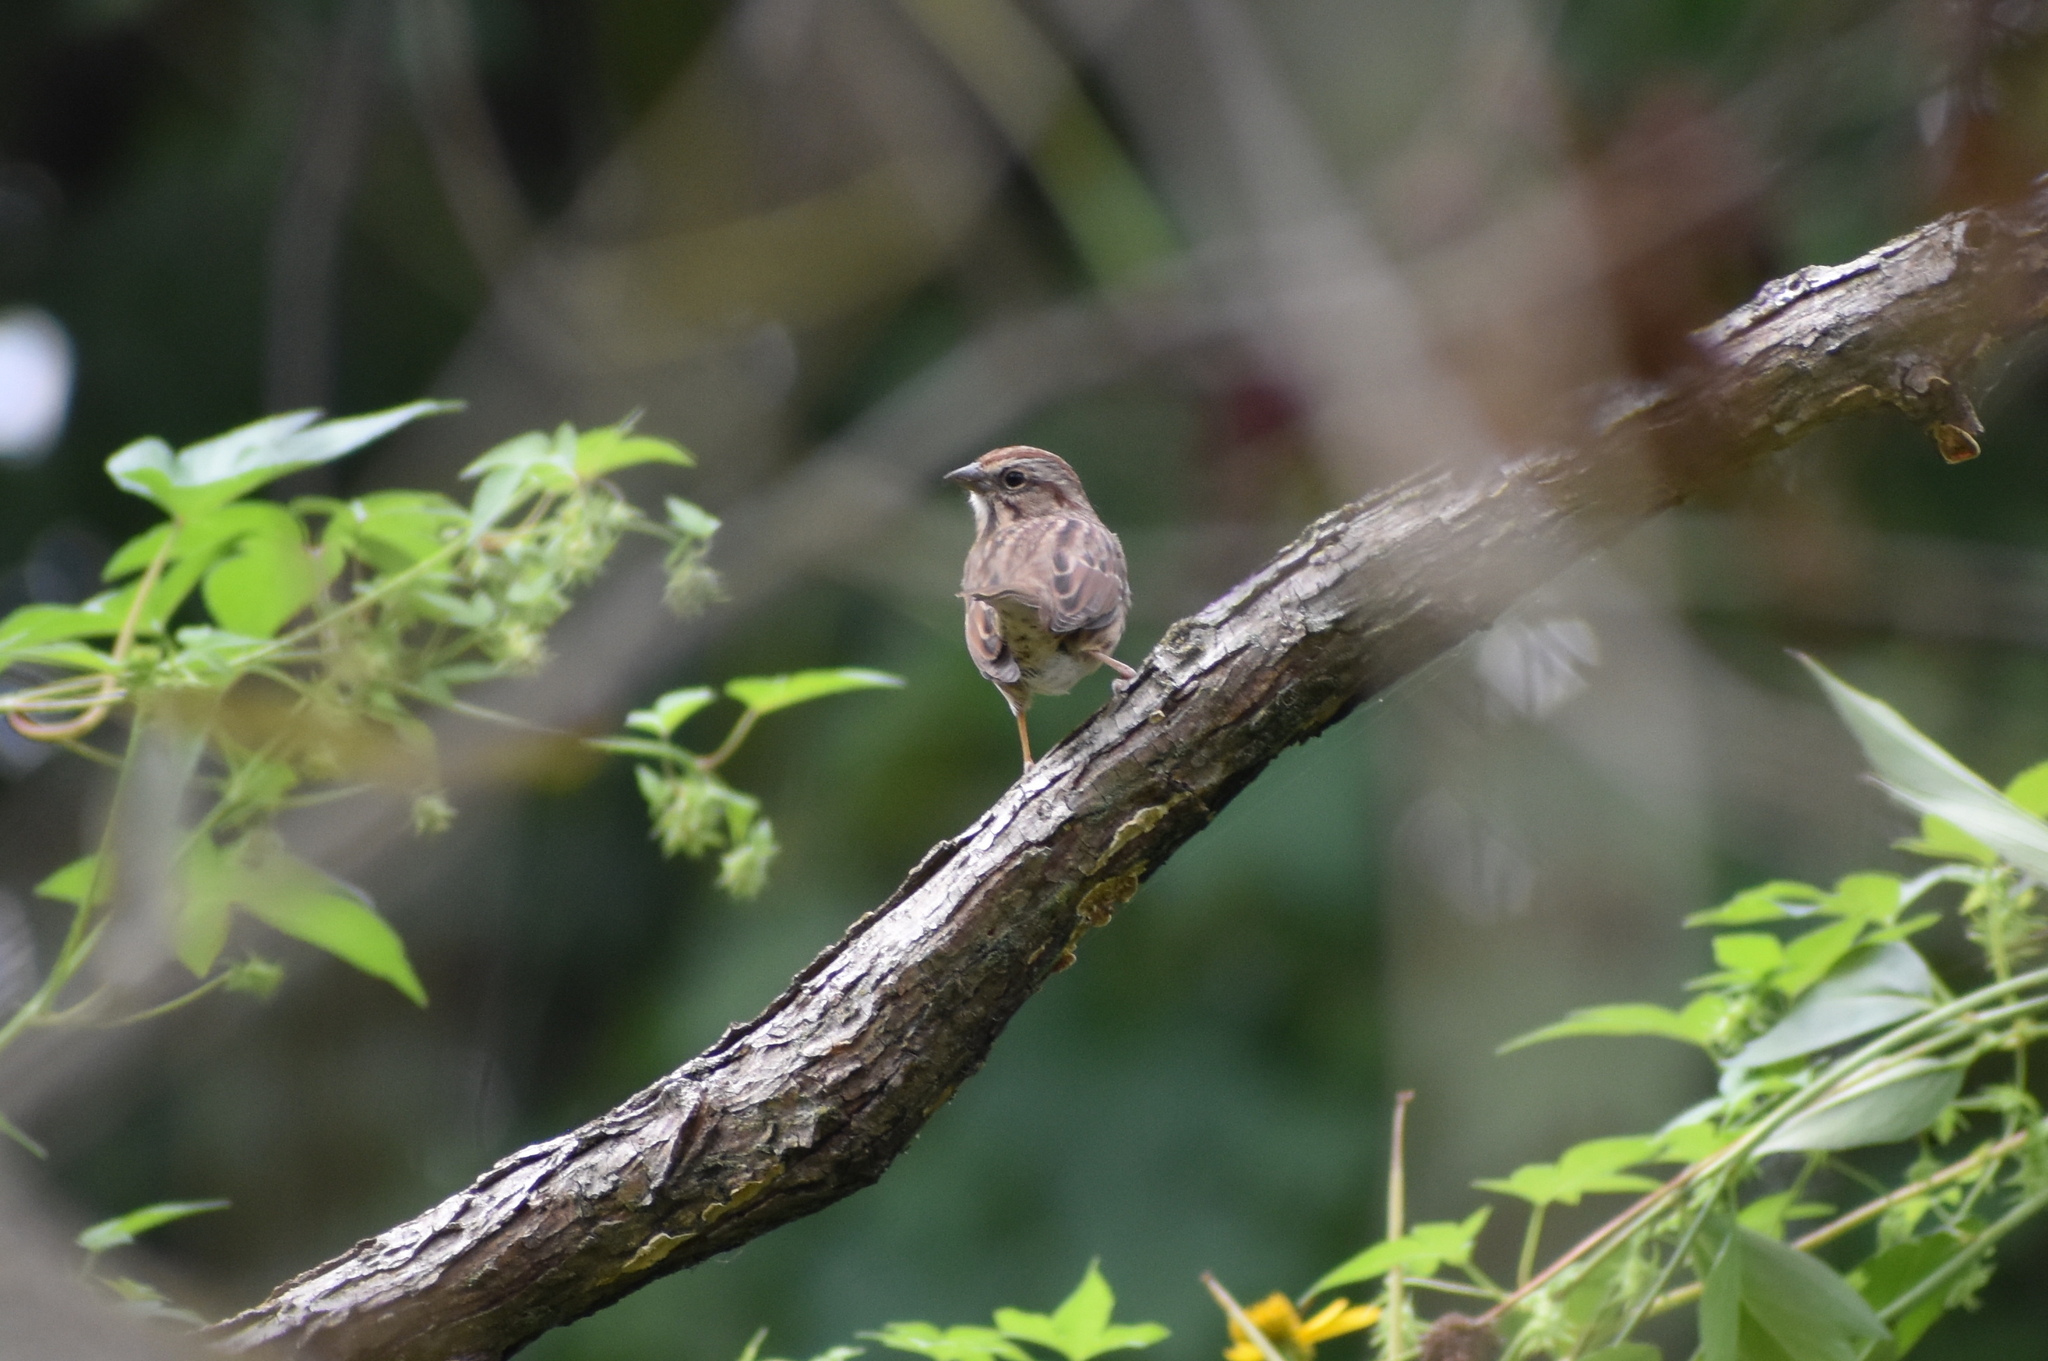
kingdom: Animalia
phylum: Chordata
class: Aves
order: Passeriformes
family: Passerellidae
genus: Melospiza
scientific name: Melospiza melodia
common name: Song sparrow
